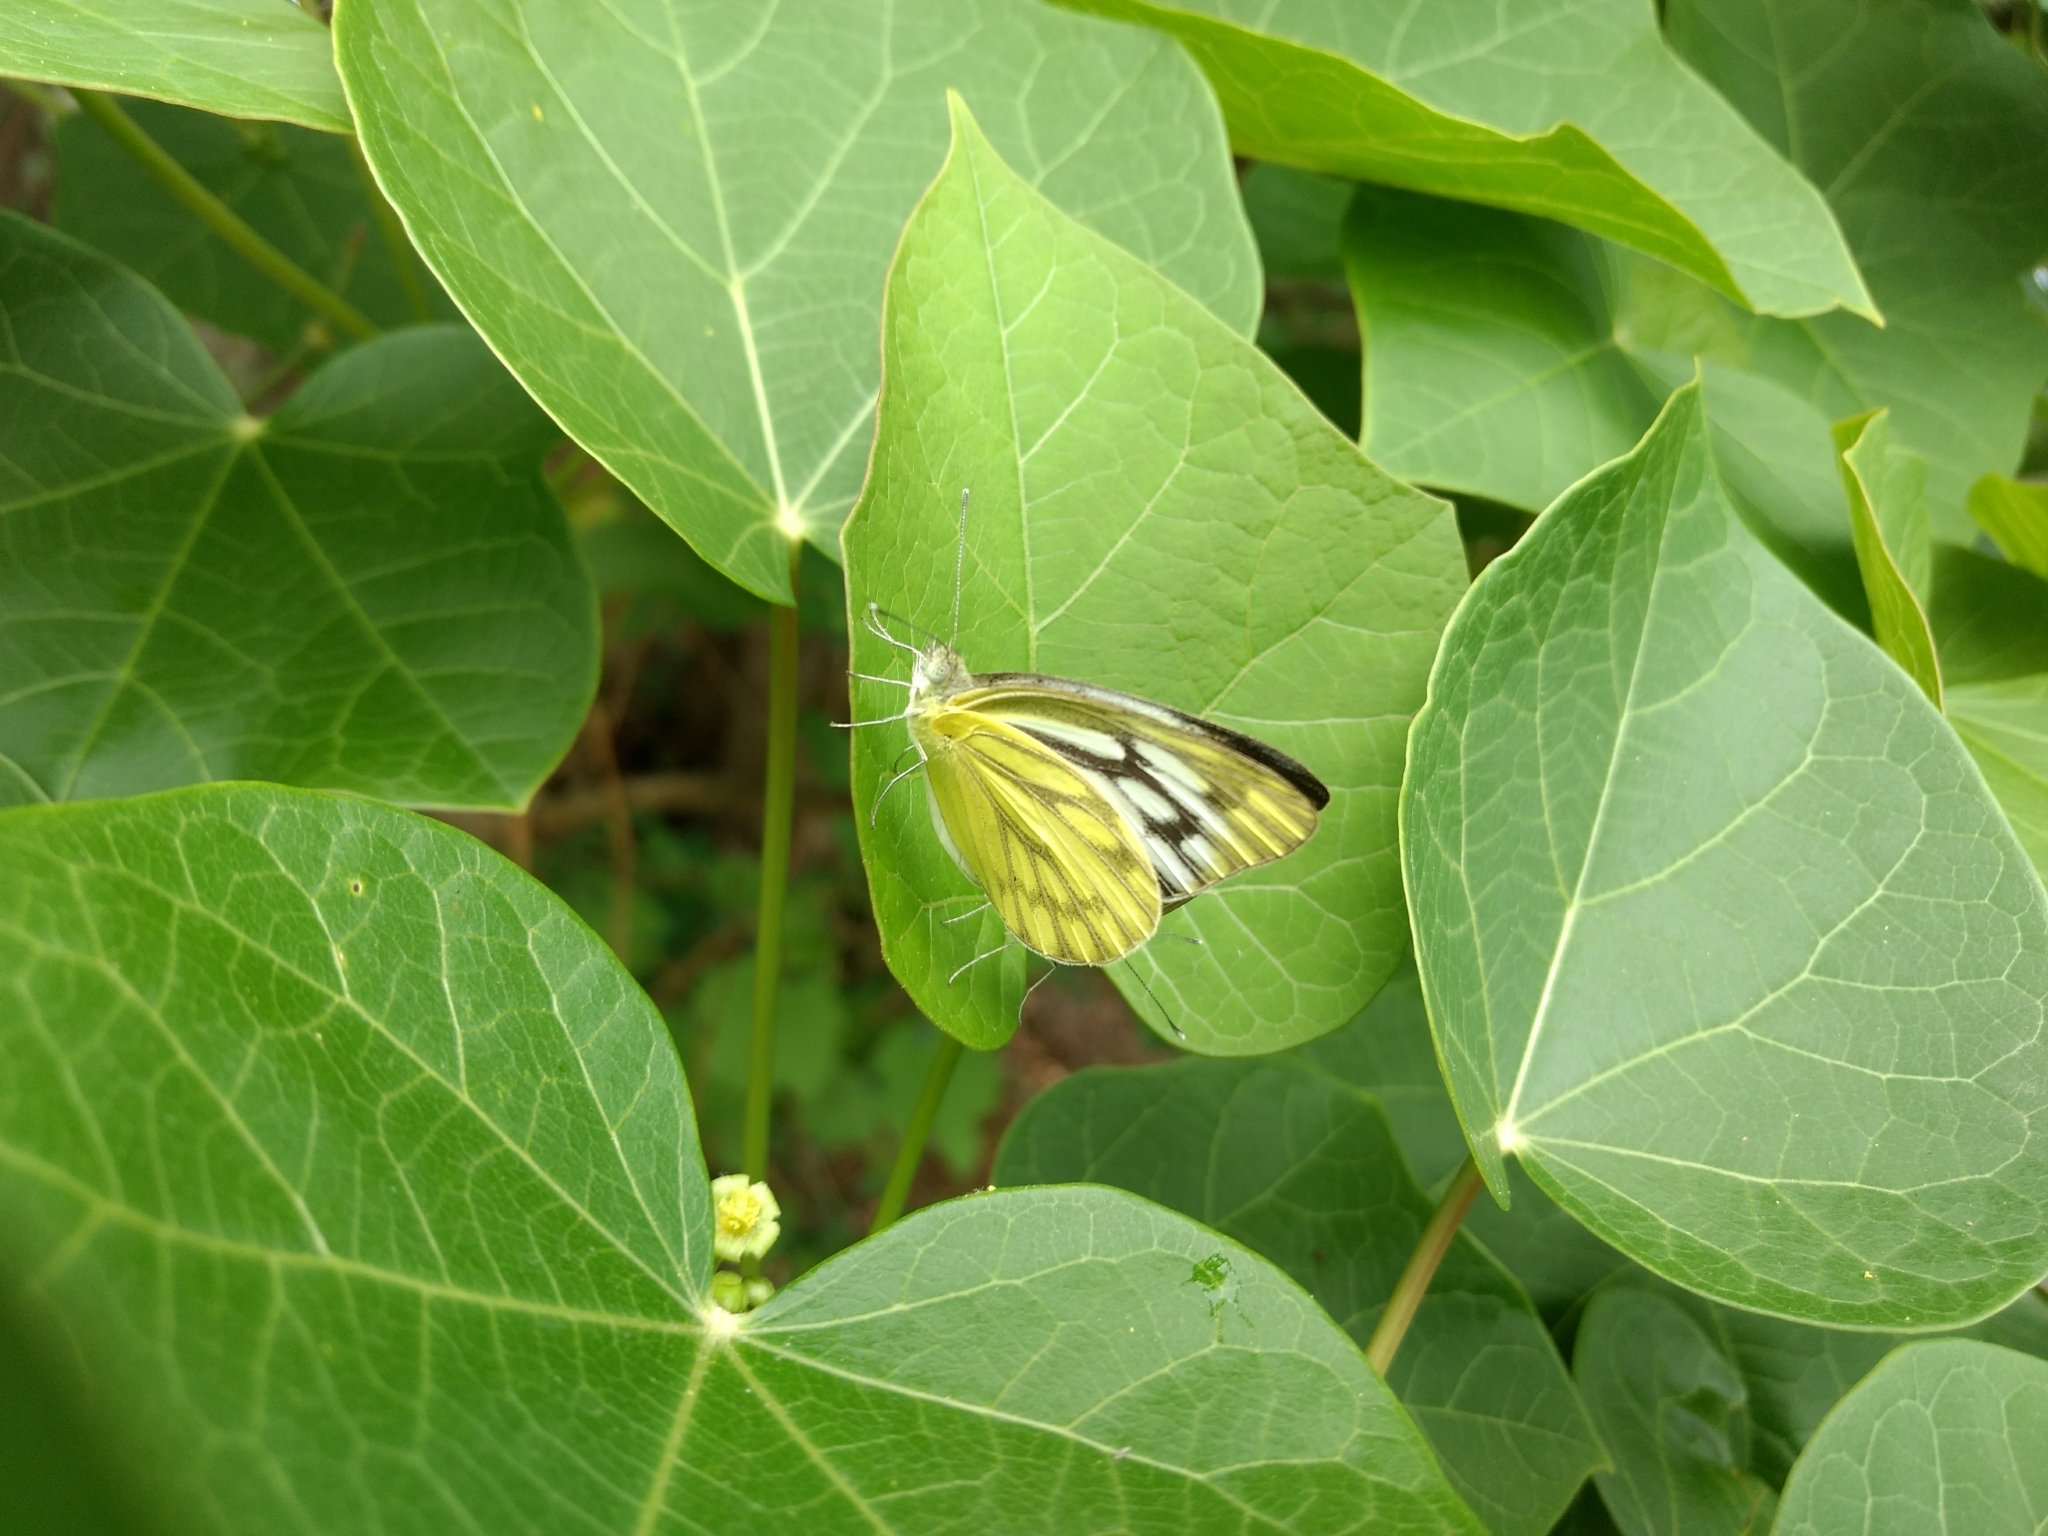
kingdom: Animalia
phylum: Arthropoda
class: Insecta
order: Lepidoptera
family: Pieridae
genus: Cepora
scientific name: Cepora nerissa
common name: Common gull
